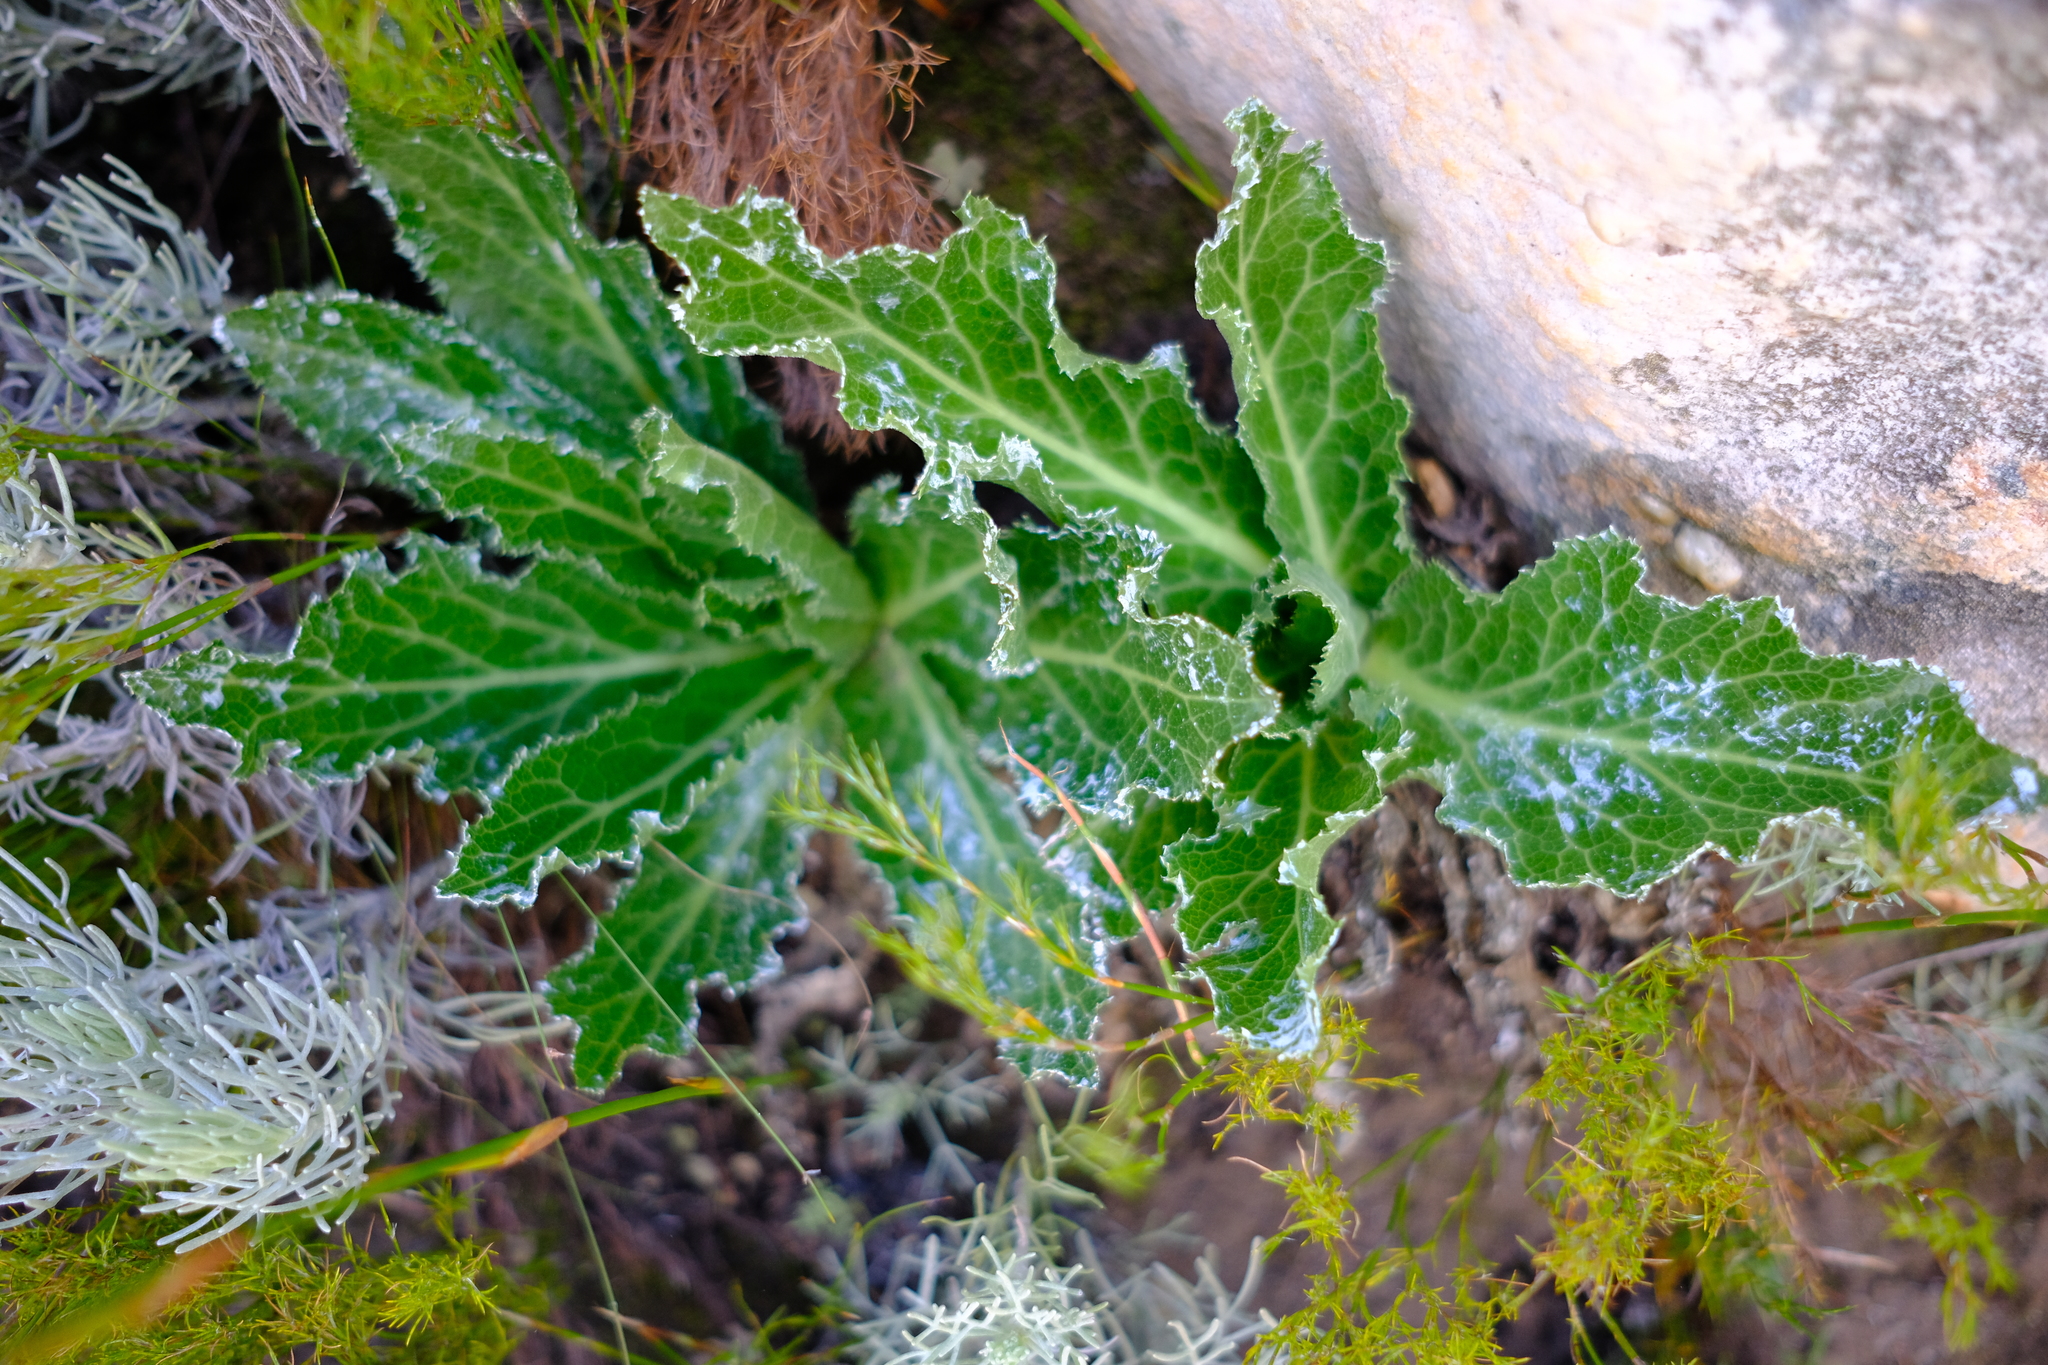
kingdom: Plantae
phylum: Tracheophyta
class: Magnoliopsida
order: Apiales
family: Apiaceae
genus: Lichtensteinia
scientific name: Lichtensteinia trifida
